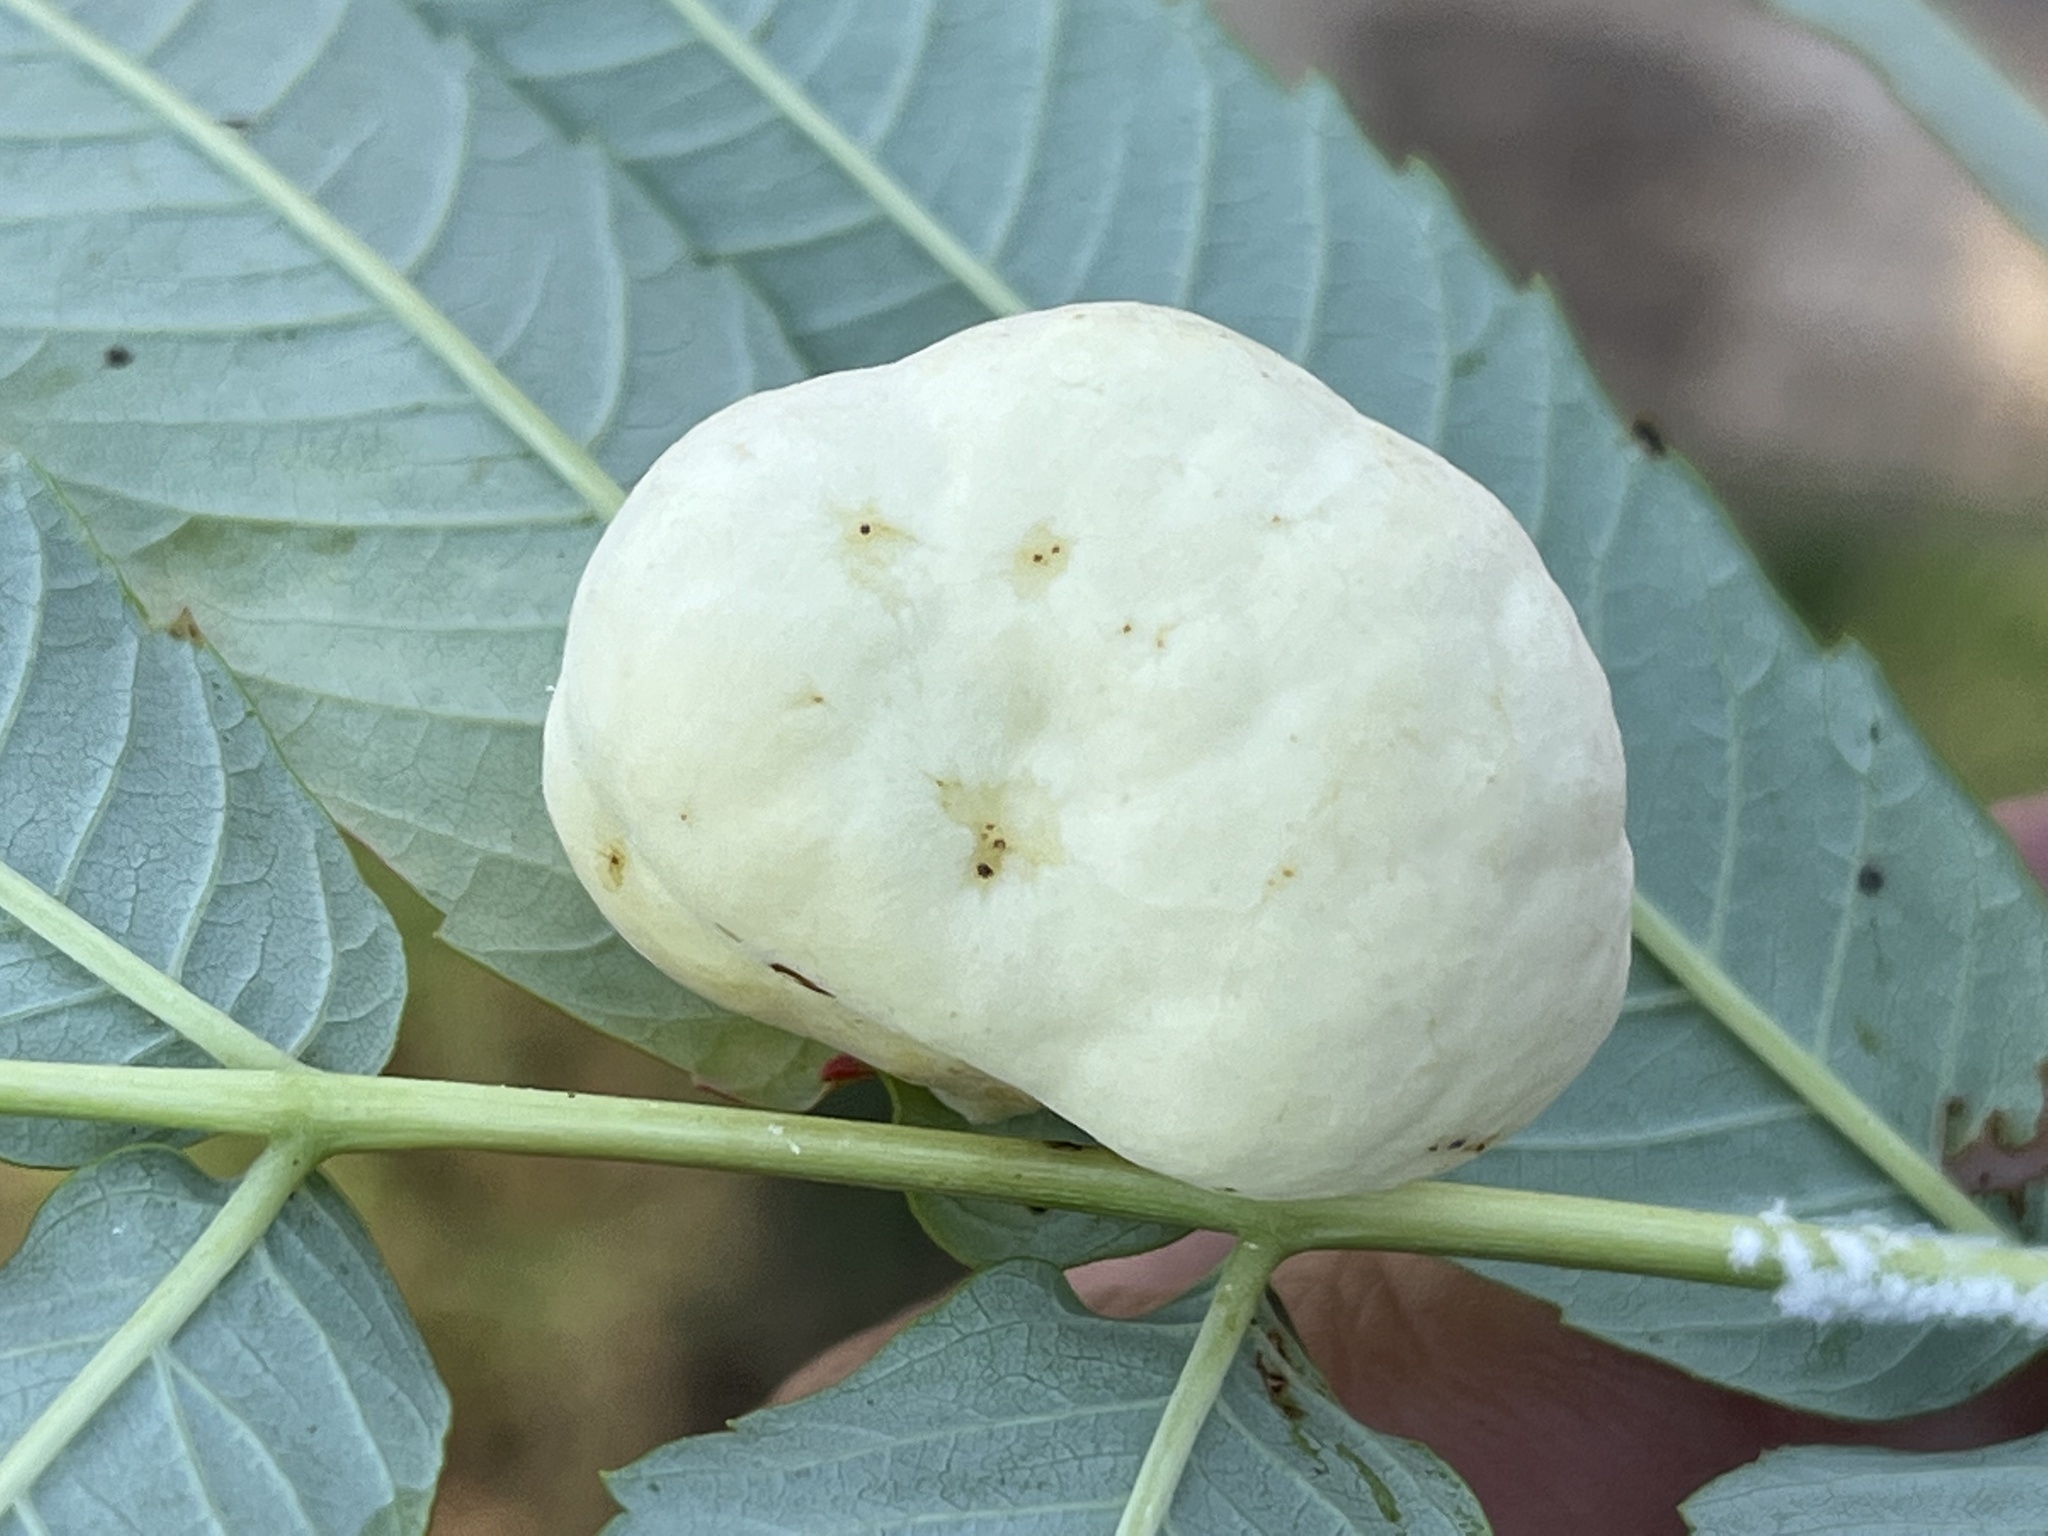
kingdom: Animalia
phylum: Arthropoda
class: Insecta
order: Hemiptera
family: Aphididae
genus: Melaphis
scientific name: Melaphis rhois
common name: Sumac gall aphid
